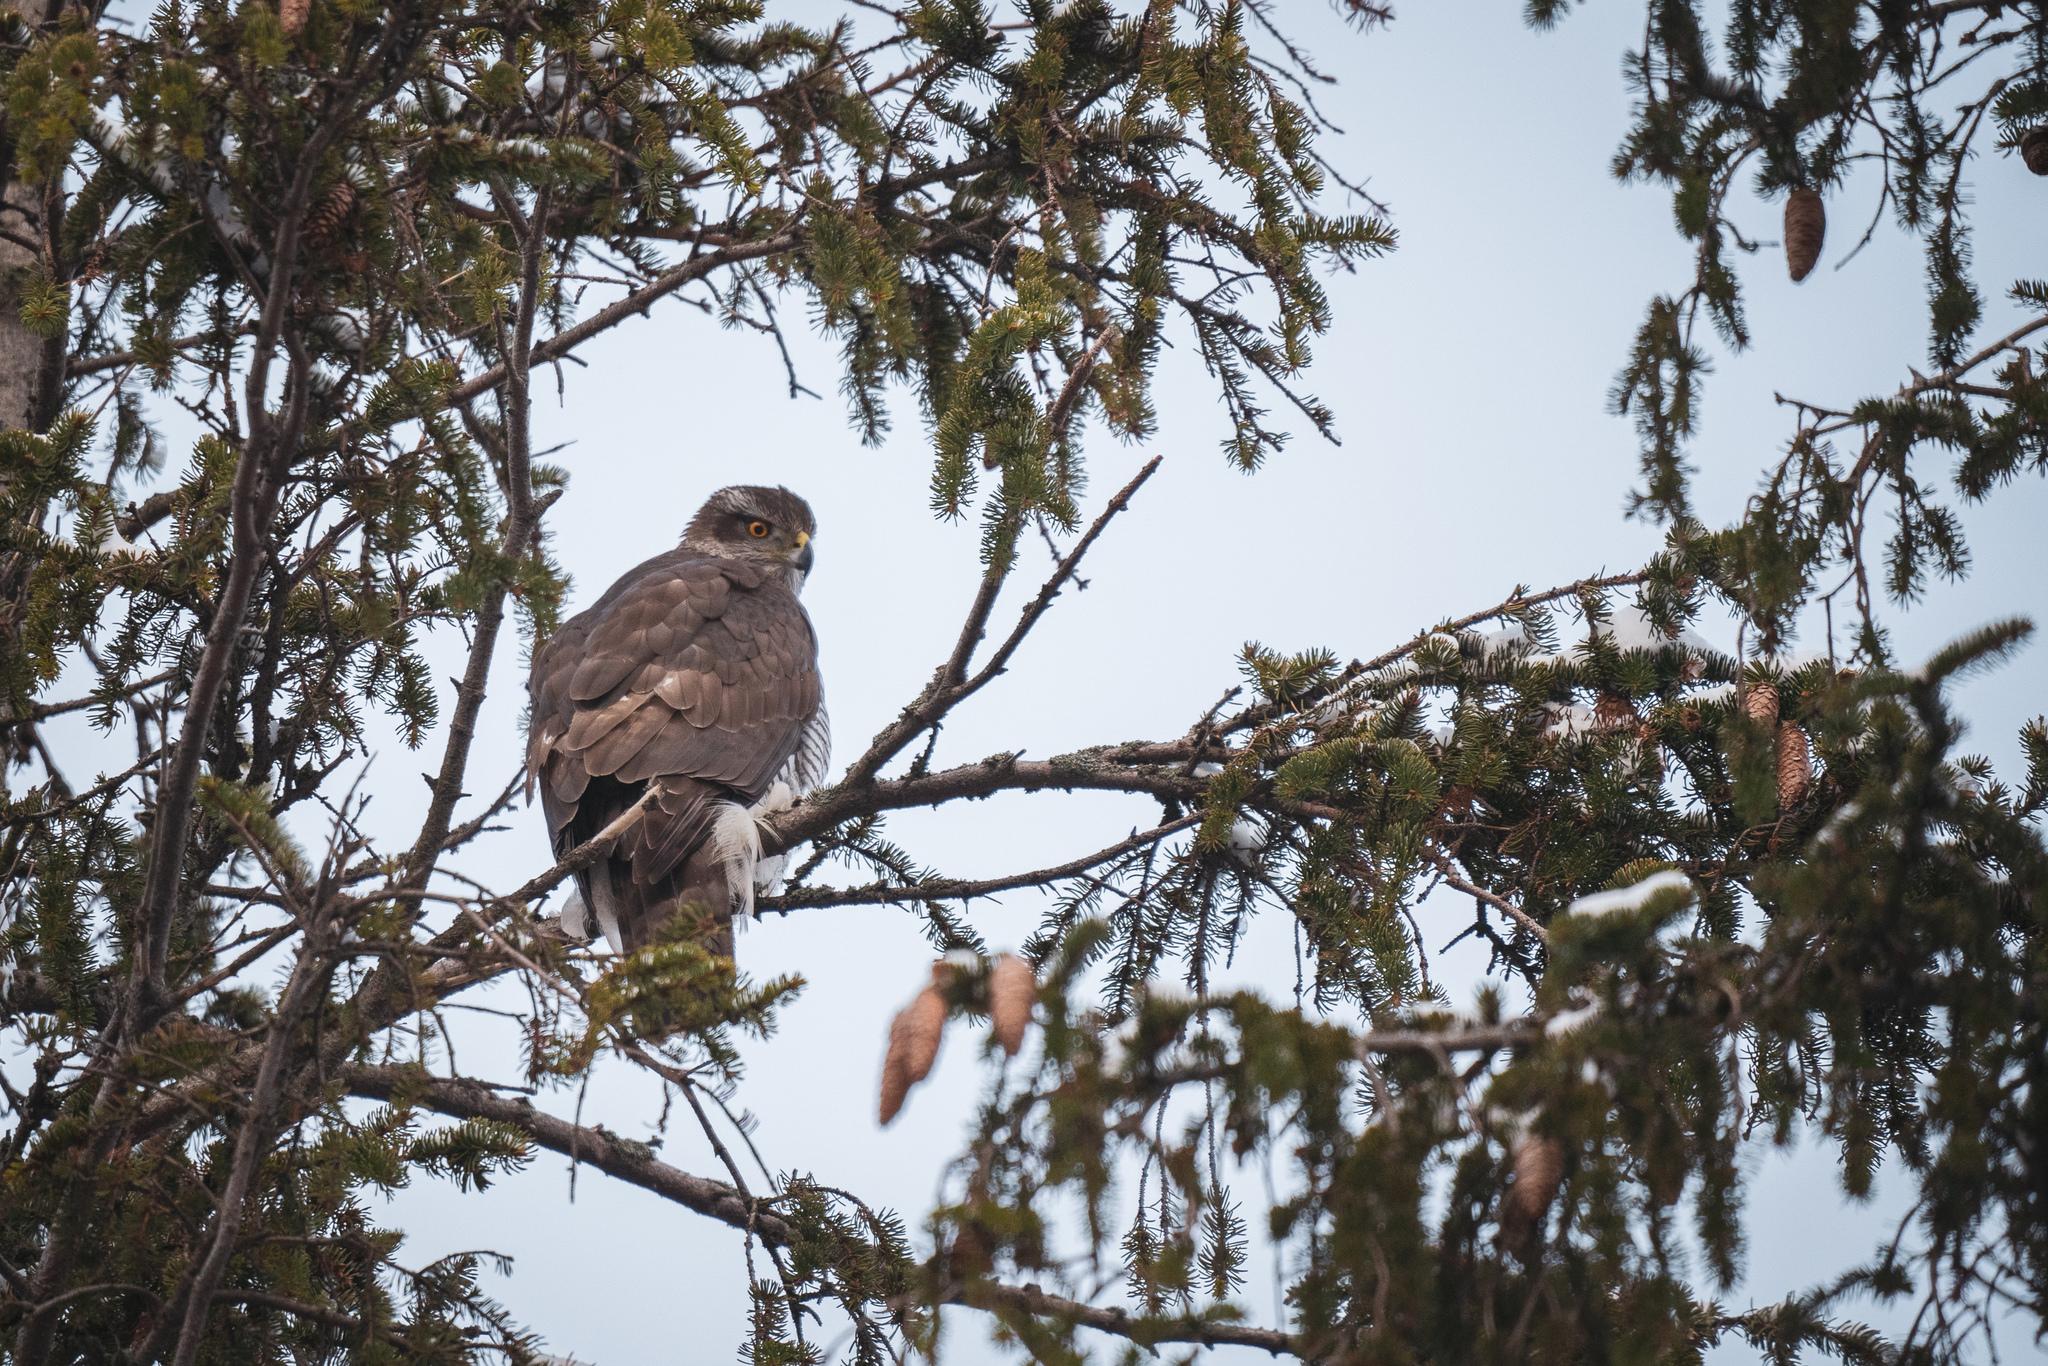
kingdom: Animalia
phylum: Chordata
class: Aves
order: Accipitriformes
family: Accipitridae
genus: Accipiter
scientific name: Accipiter gentilis
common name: Northern goshawk
